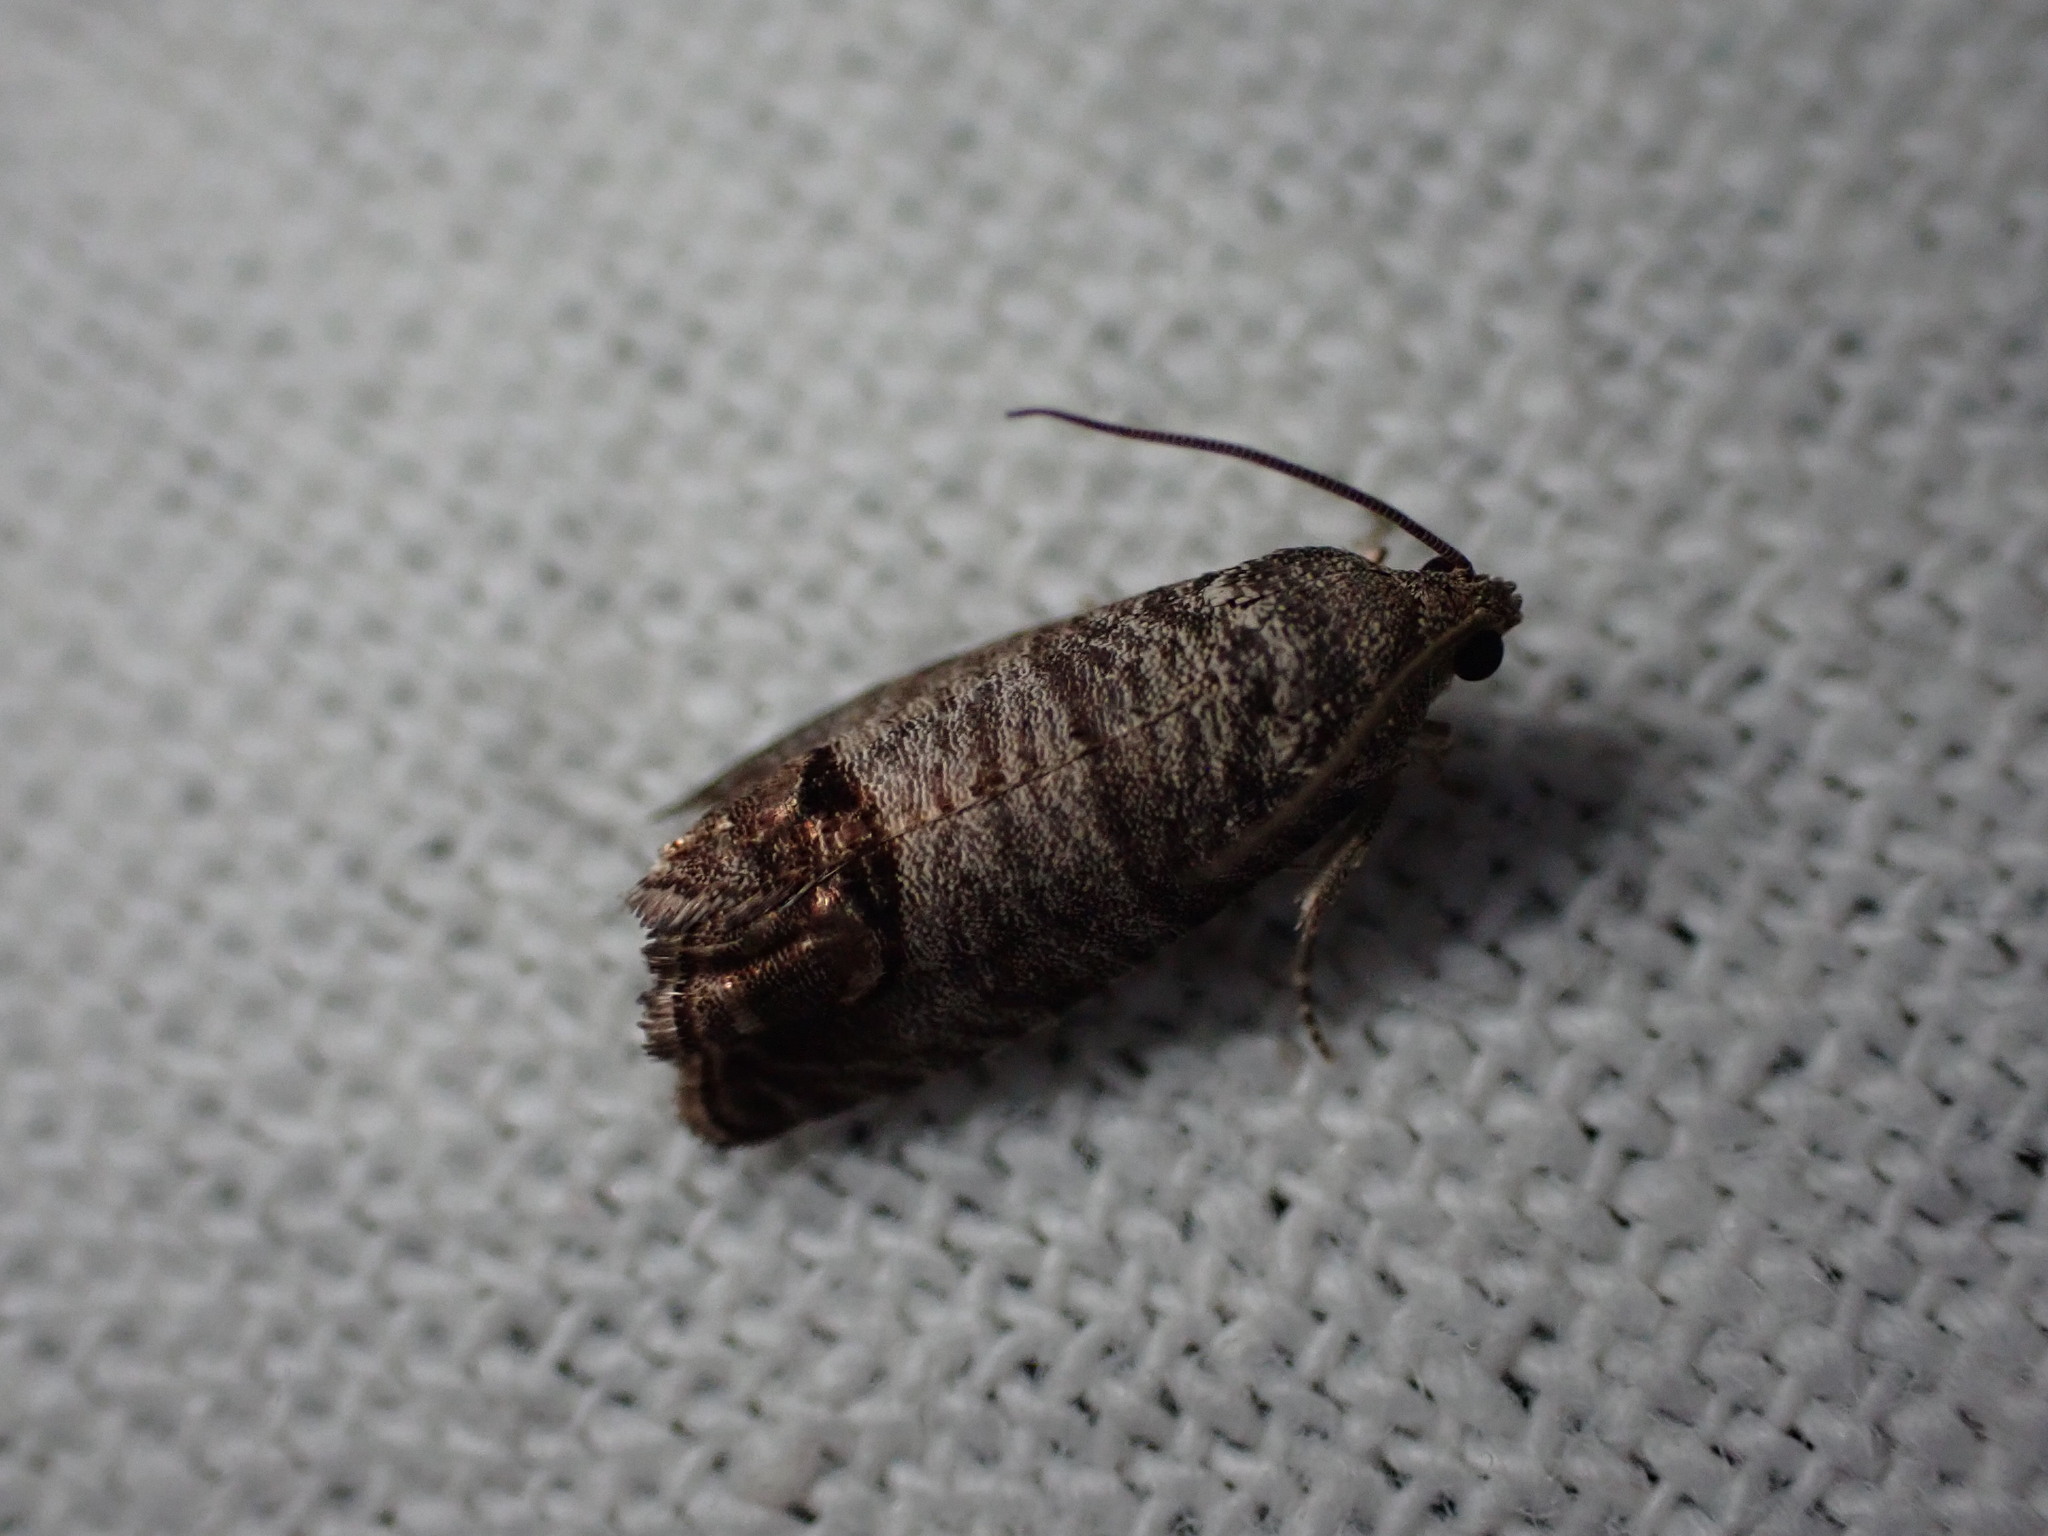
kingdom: Animalia
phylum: Arthropoda
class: Insecta
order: Lepidoptera
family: Tortricidae
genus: Cydia
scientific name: Cydia pomonella
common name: Codling moth
